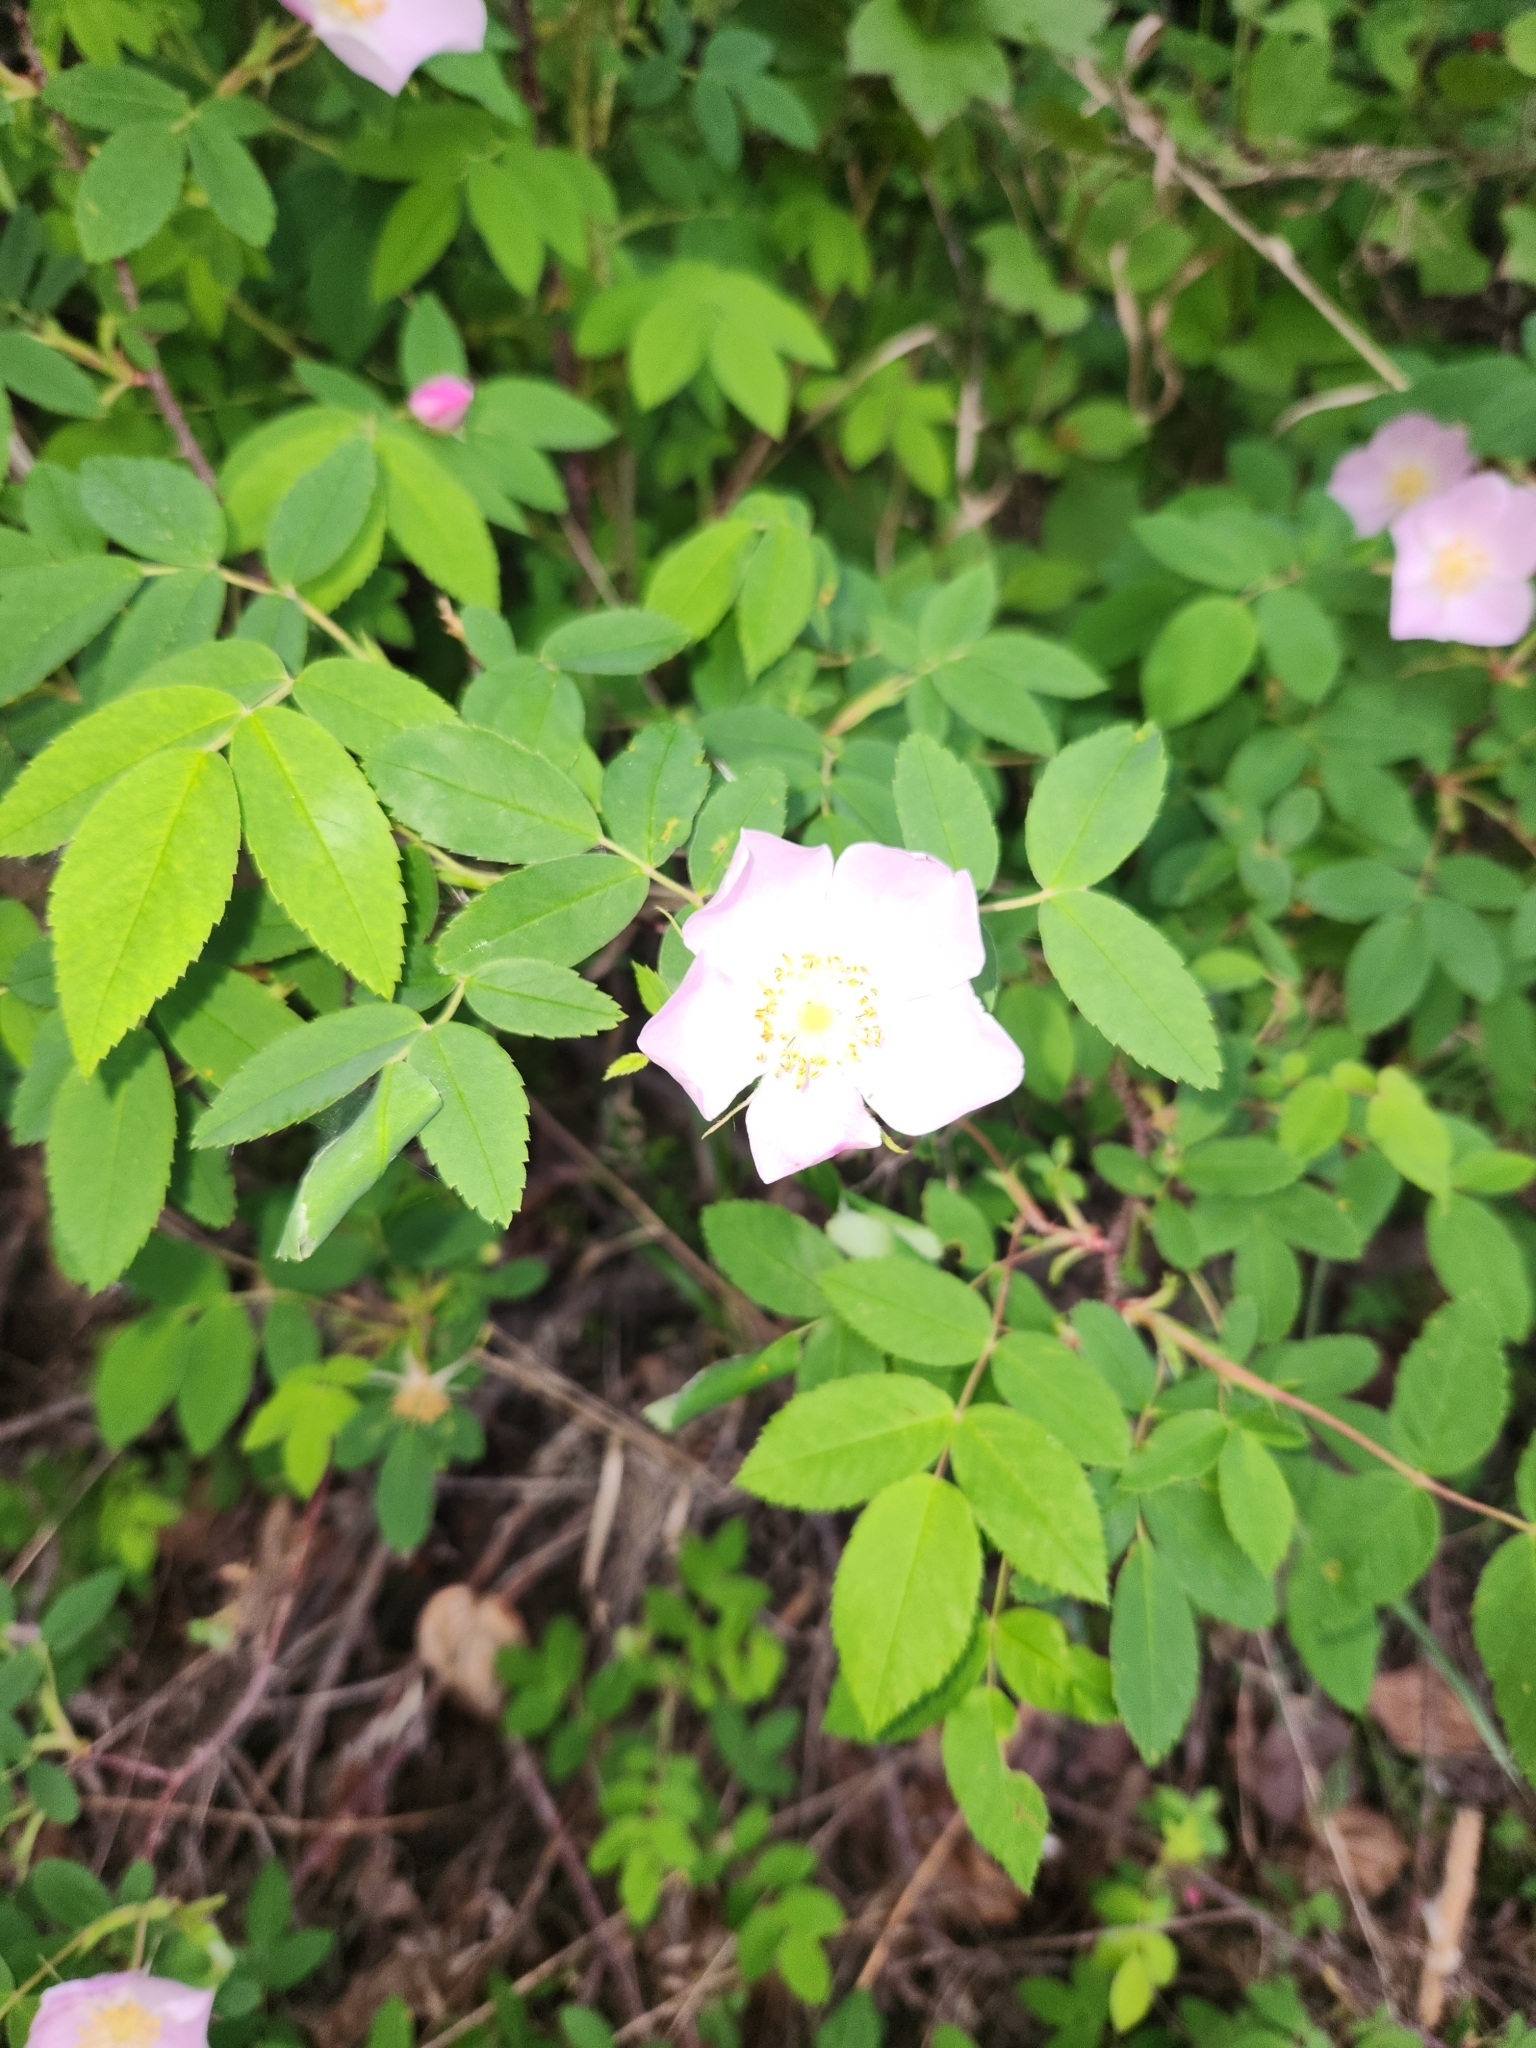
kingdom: Plantae
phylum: Tracheophyta
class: Magnoliopsida
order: Rosales
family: Rosaceae
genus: Rosa
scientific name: Rosa acicularis
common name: Prickly rose
